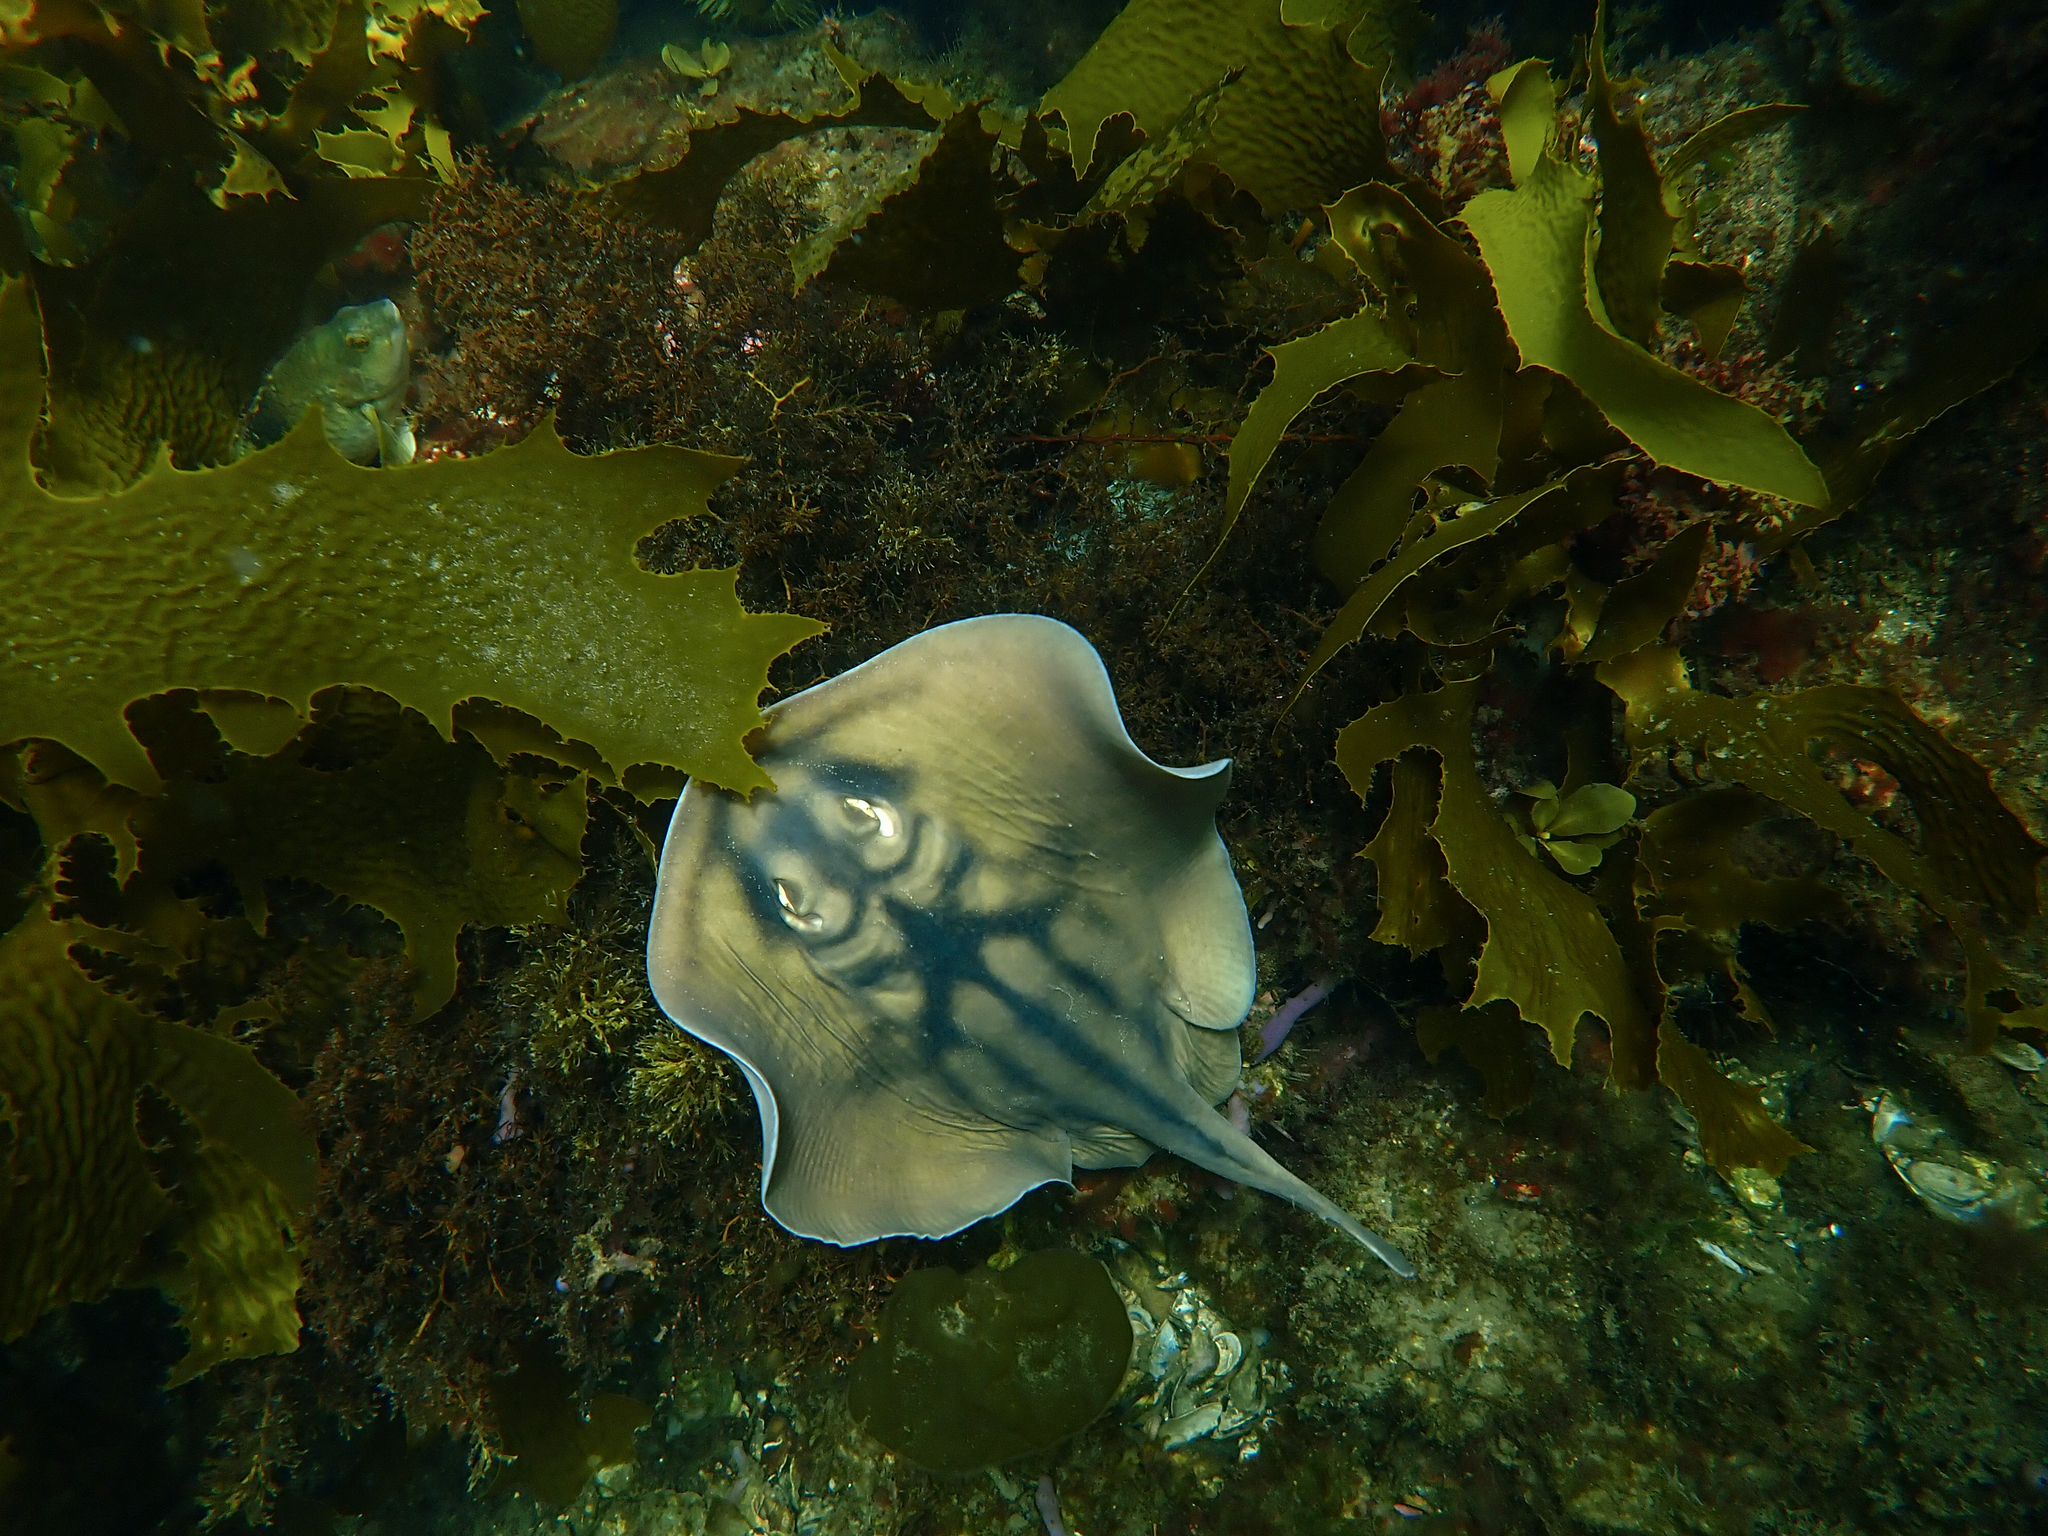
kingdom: Animalia
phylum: Chordata
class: Elasmobranchii
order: Myliobatiformes
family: Urolophidae
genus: Urolophus
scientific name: Urolophus cruciatus
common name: Banded stingaree
